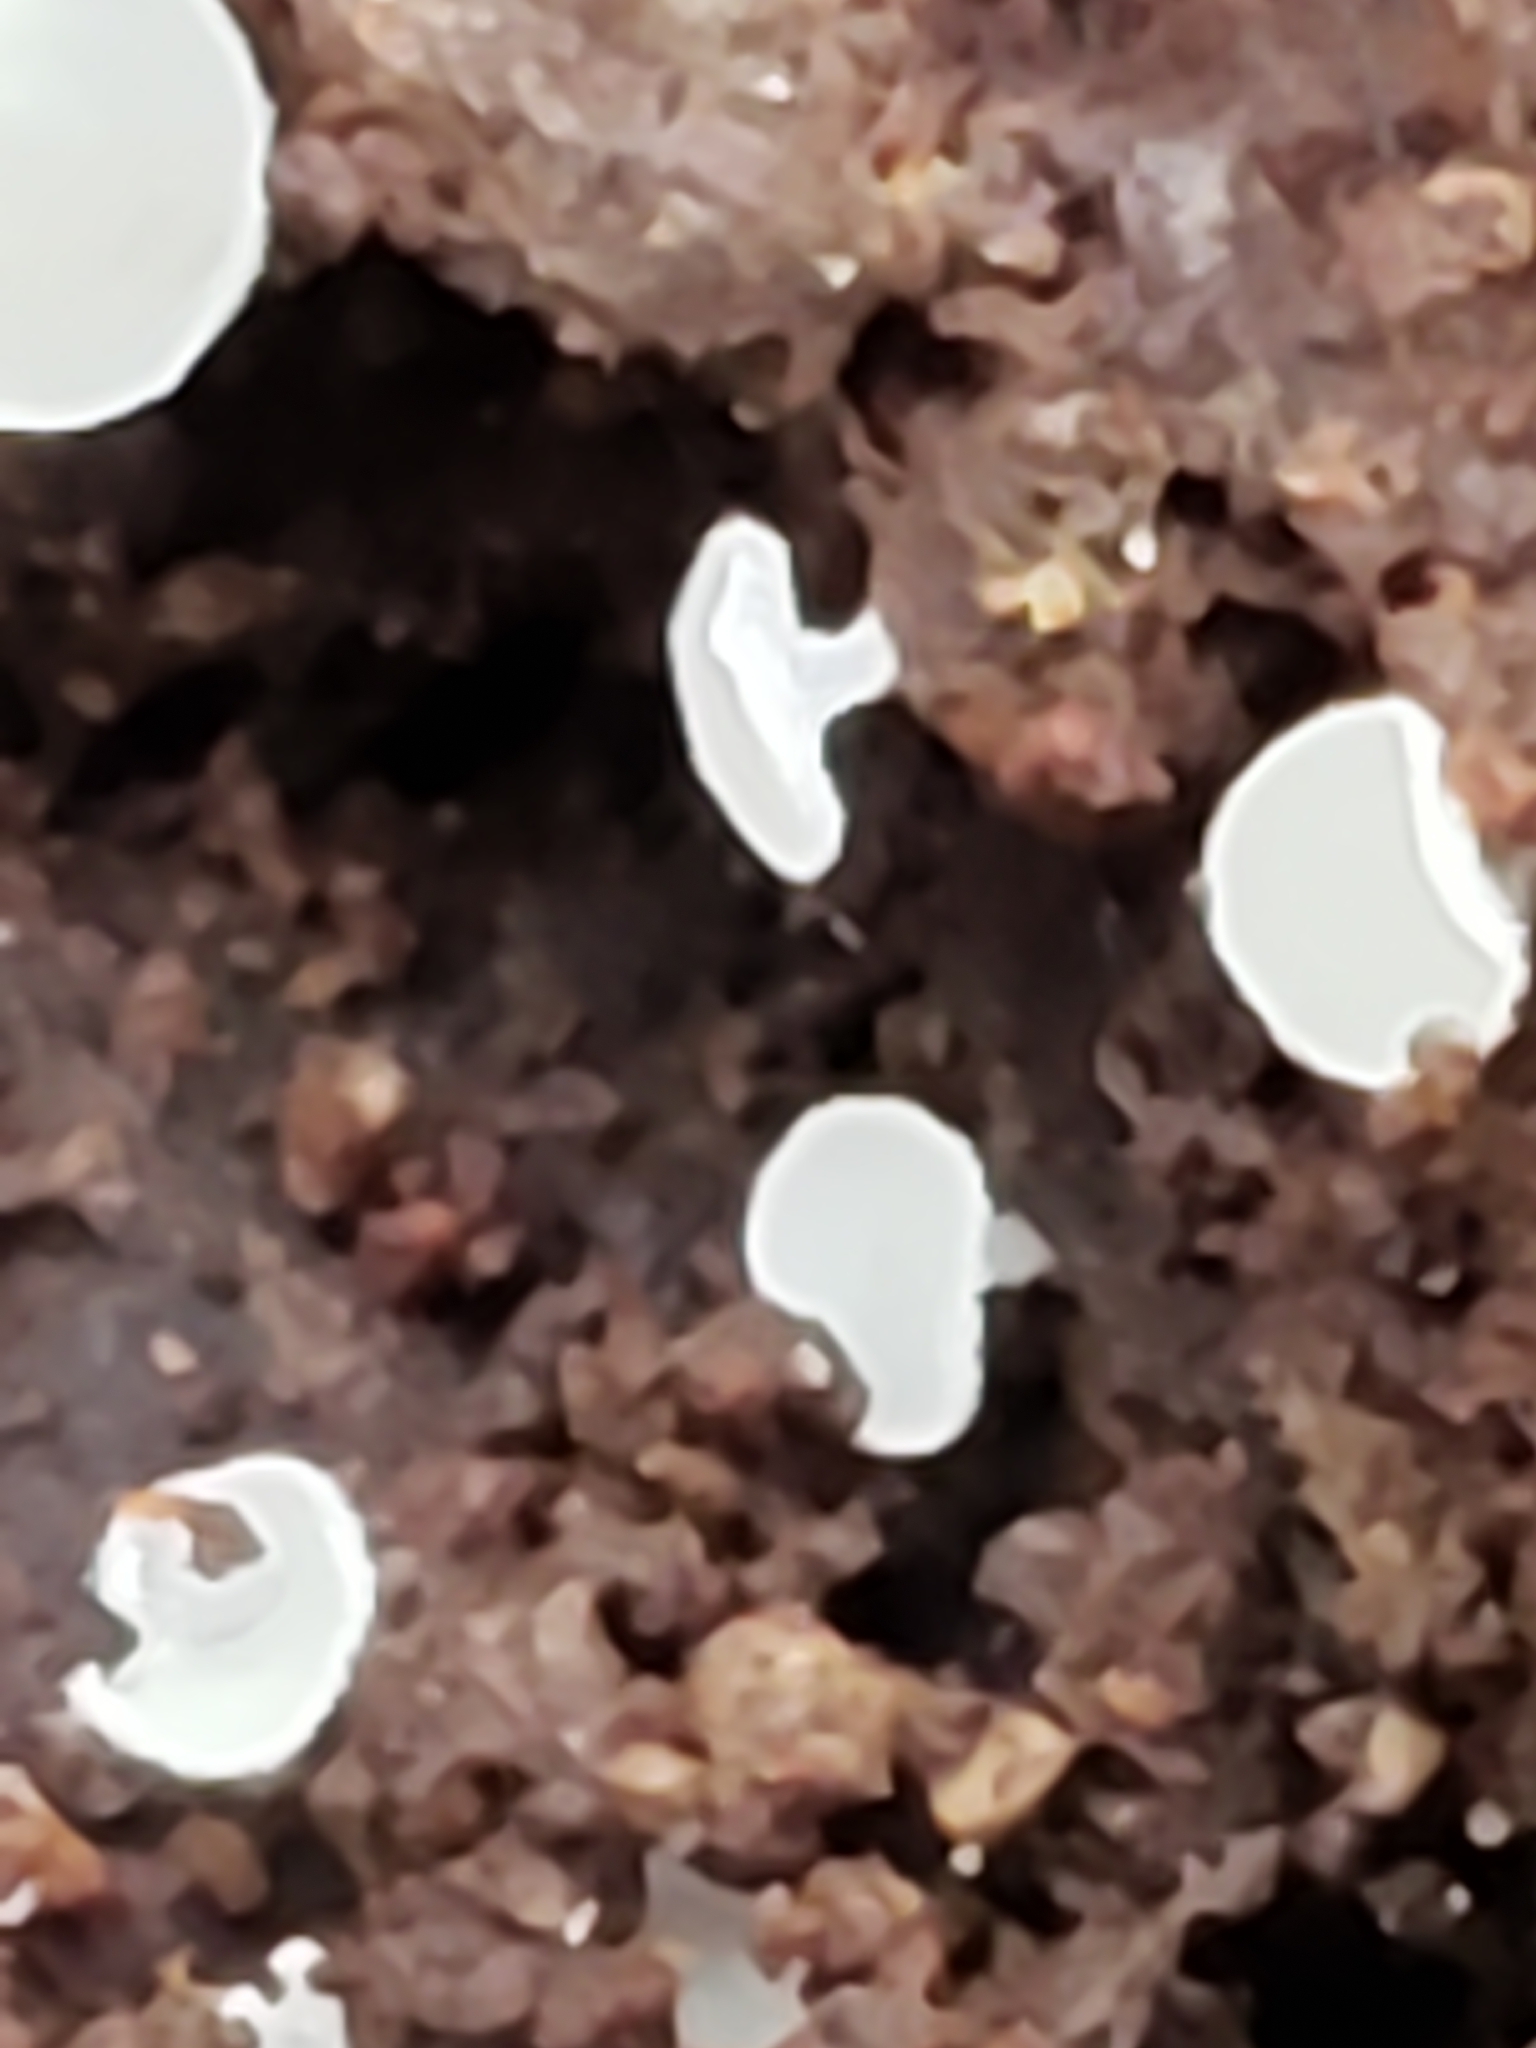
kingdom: Fungi
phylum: Ascomycota
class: Leotiomycetes
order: Helotiales
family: Lachnaceae
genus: Lachnum
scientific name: Lachnum virgineum
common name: Snowy disco
